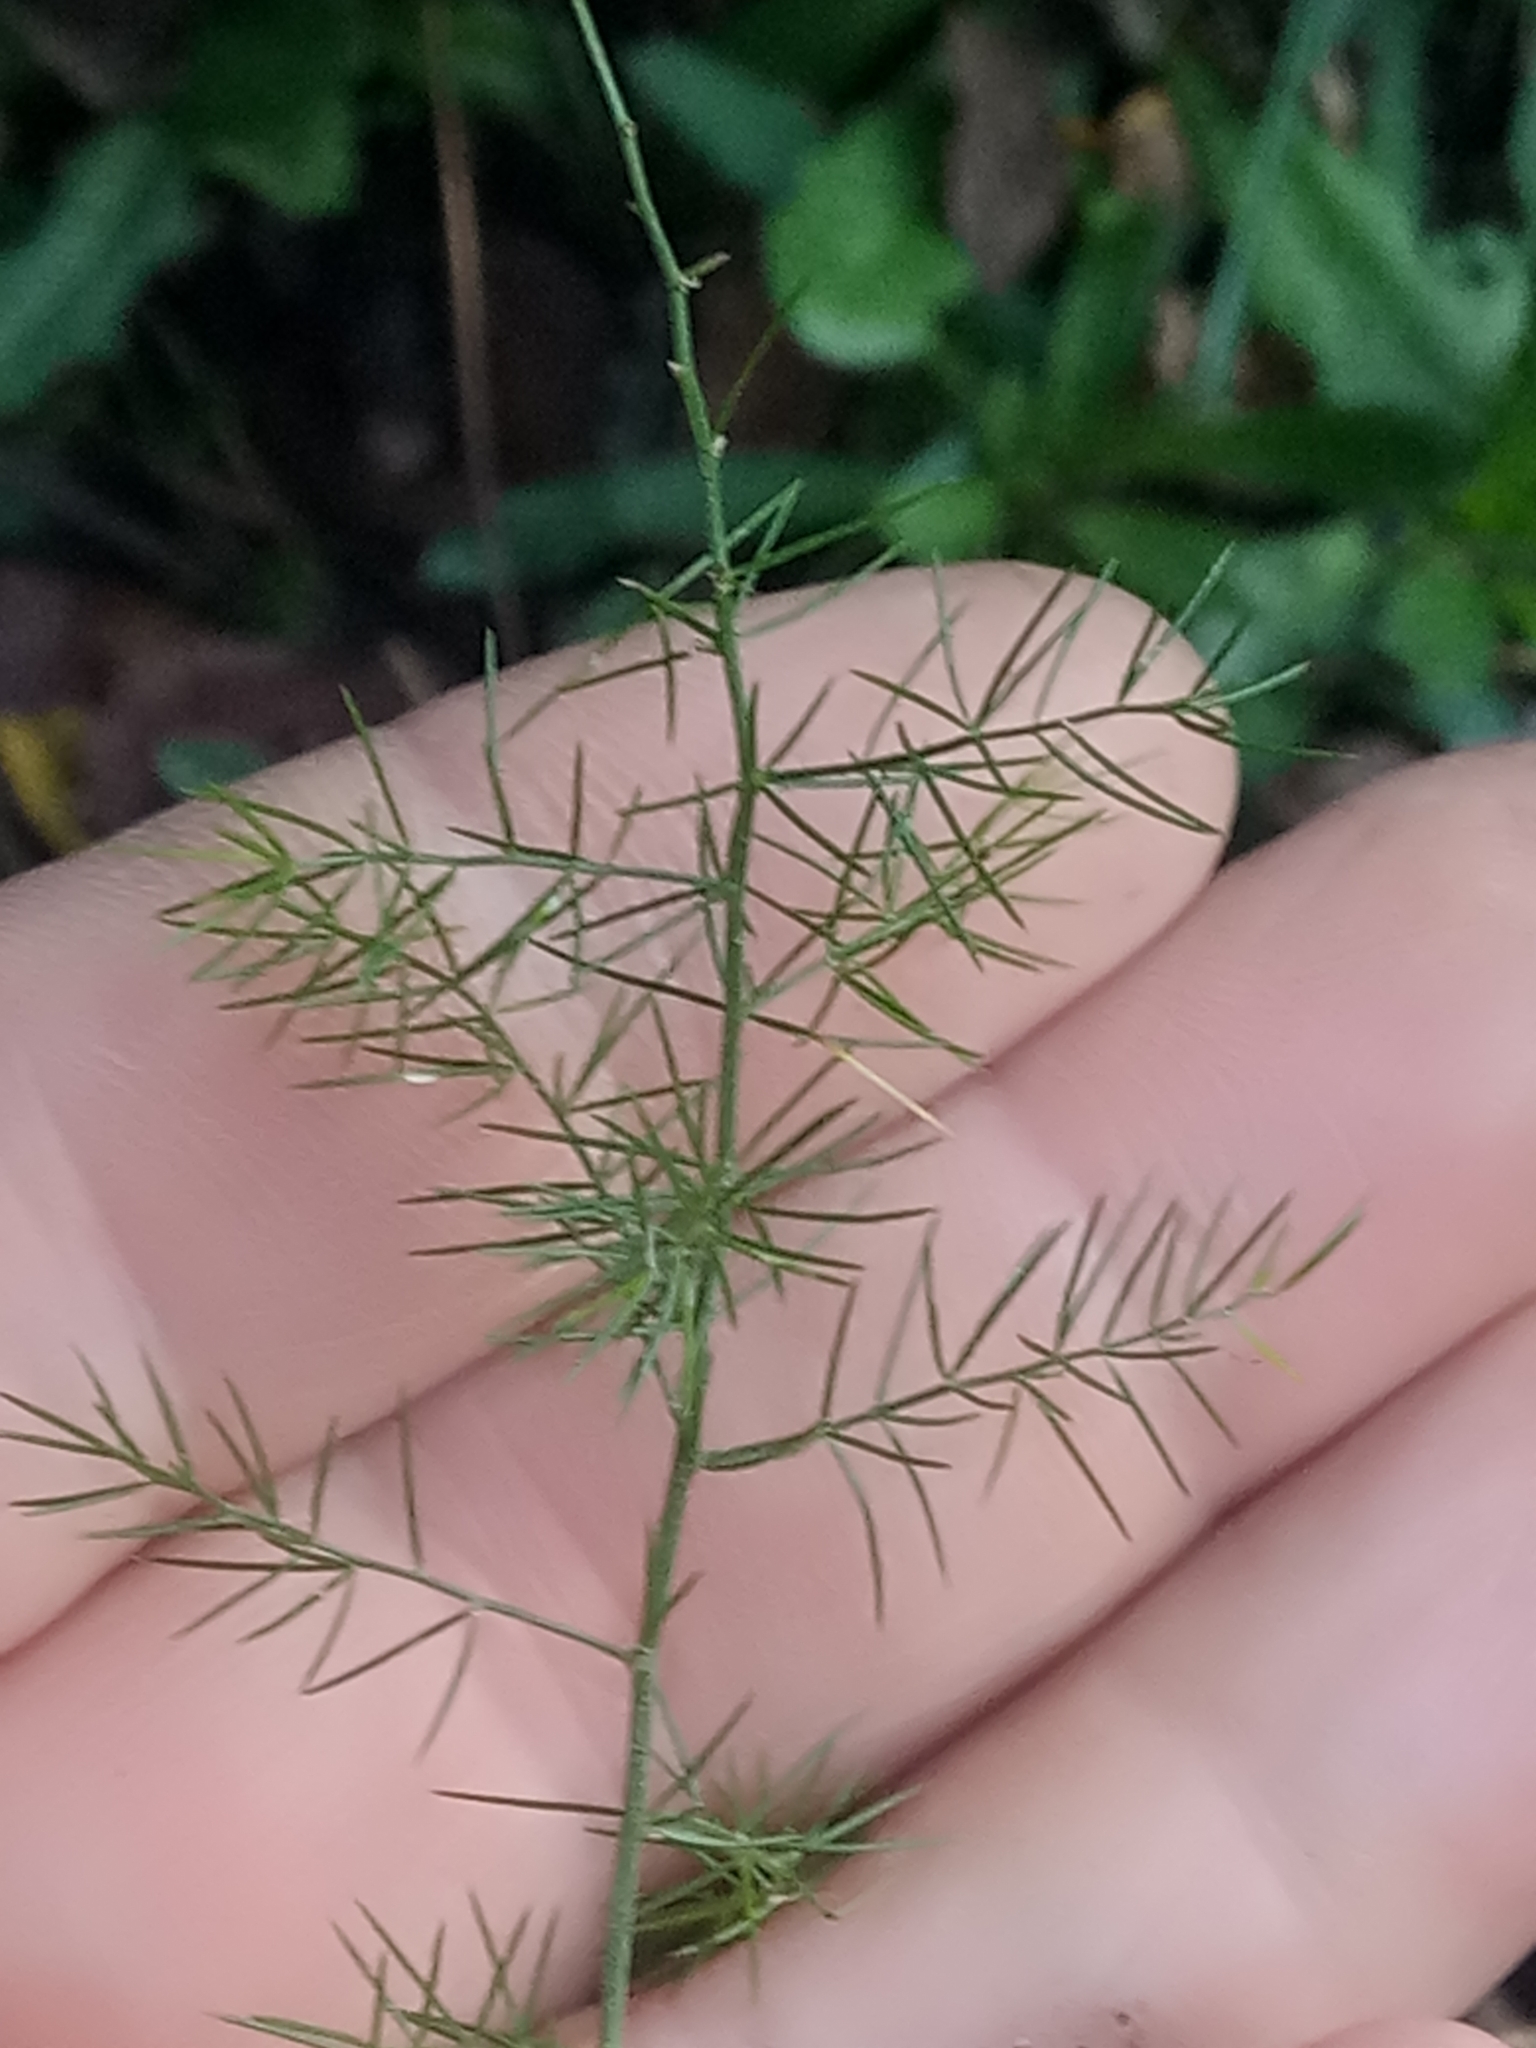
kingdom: Plantae
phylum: Tracheophyta
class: Liliopsida
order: Asparagales
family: Asparagaceae
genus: Asparagus
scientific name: Asparagus acutifolius
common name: Wild asparagus
